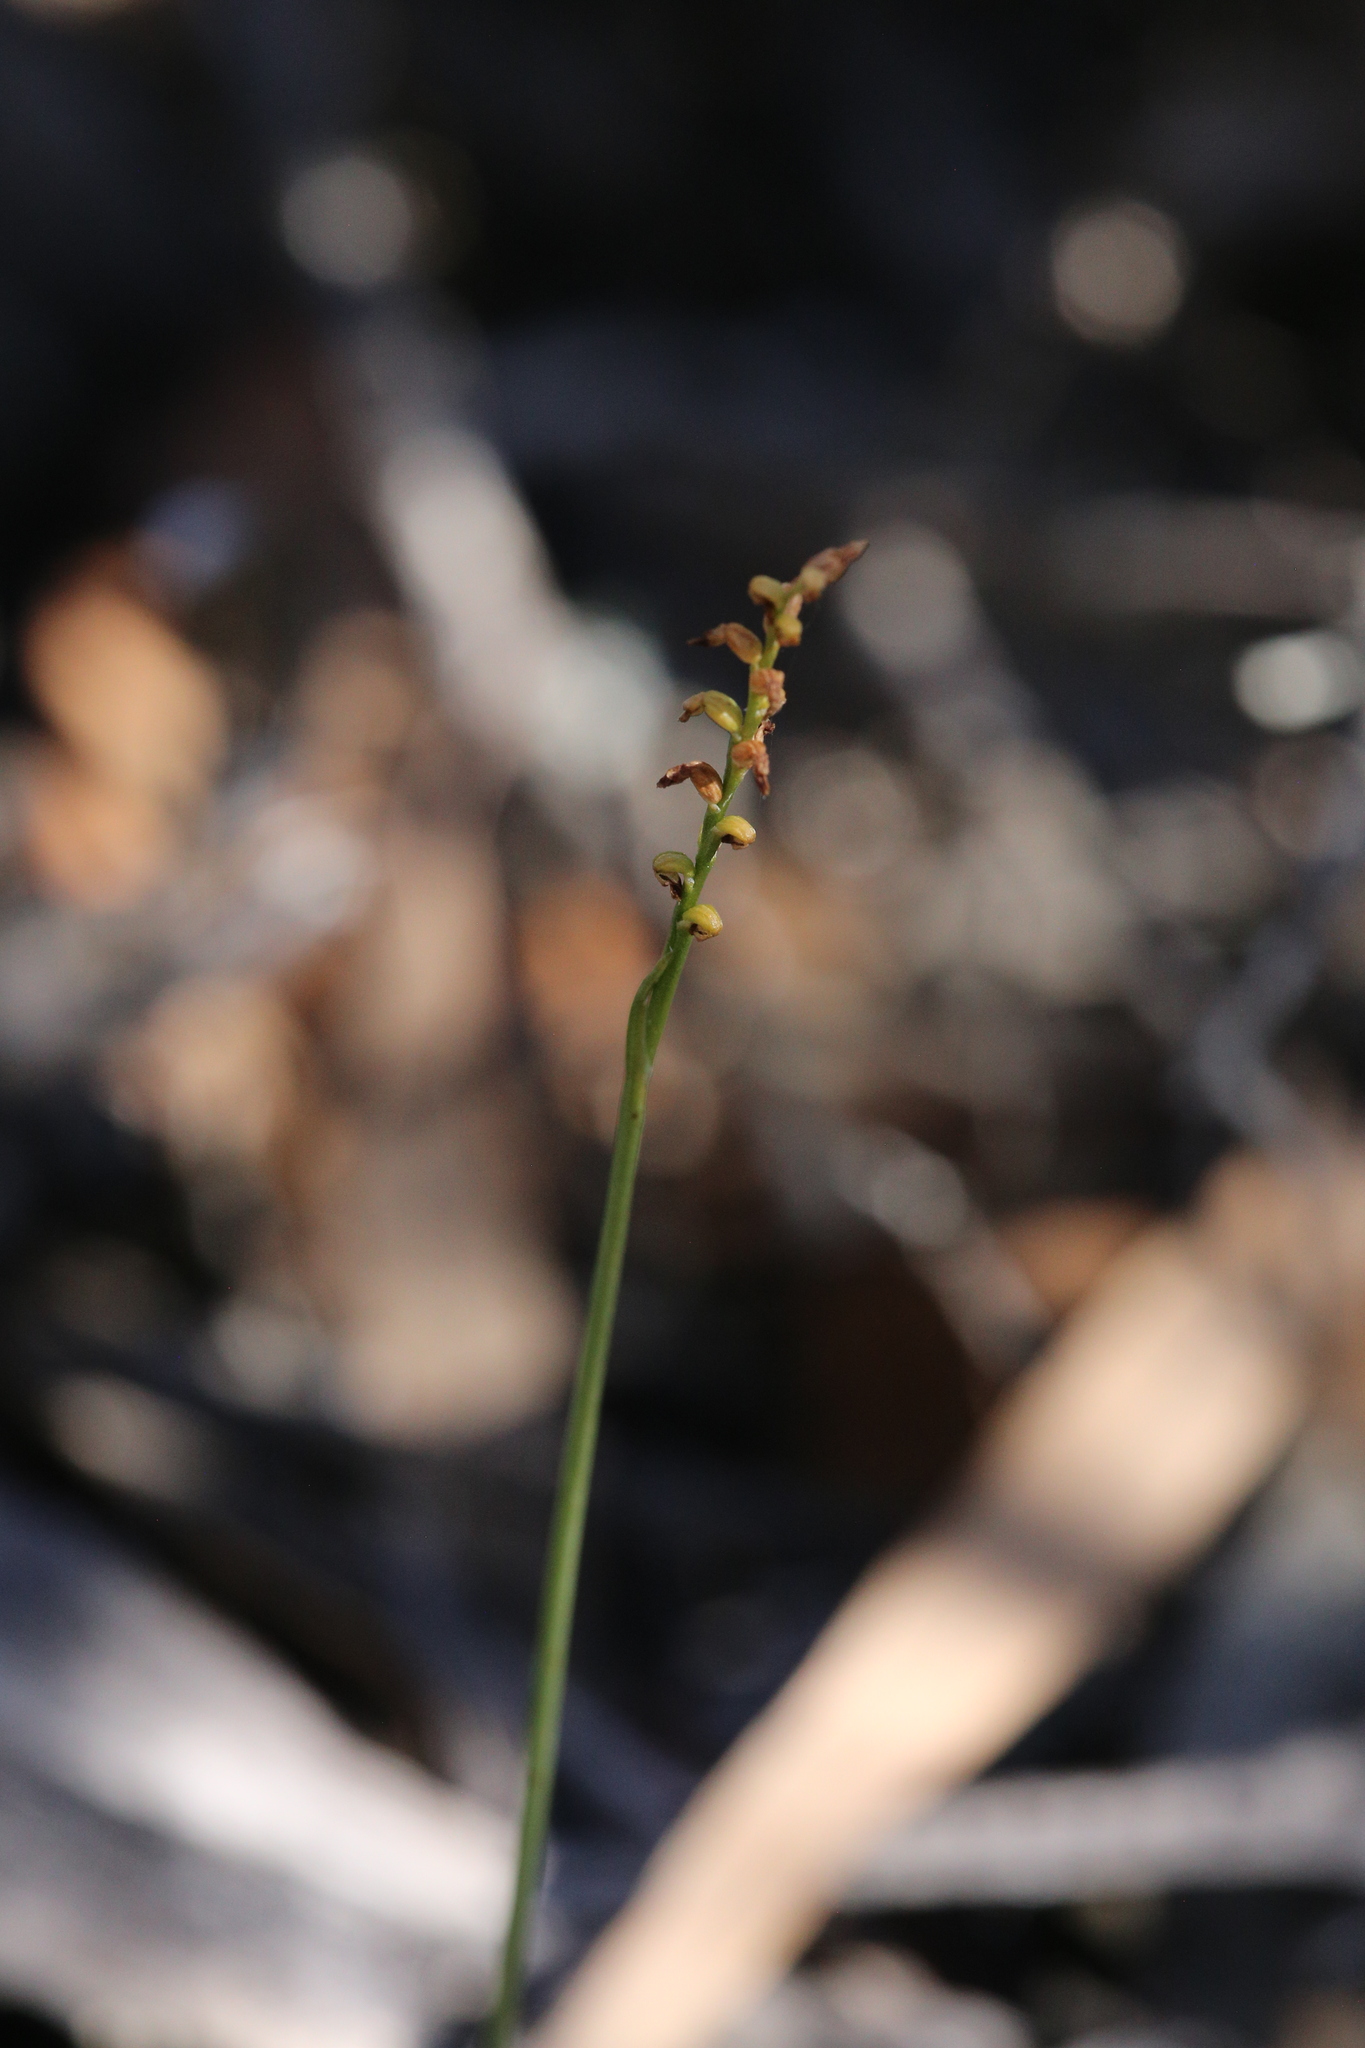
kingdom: Plantae
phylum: Tracheophyta
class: Liliopsida
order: Asparagales
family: Orchidaceae
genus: Genoplesium
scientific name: Genoplesium nigricans
